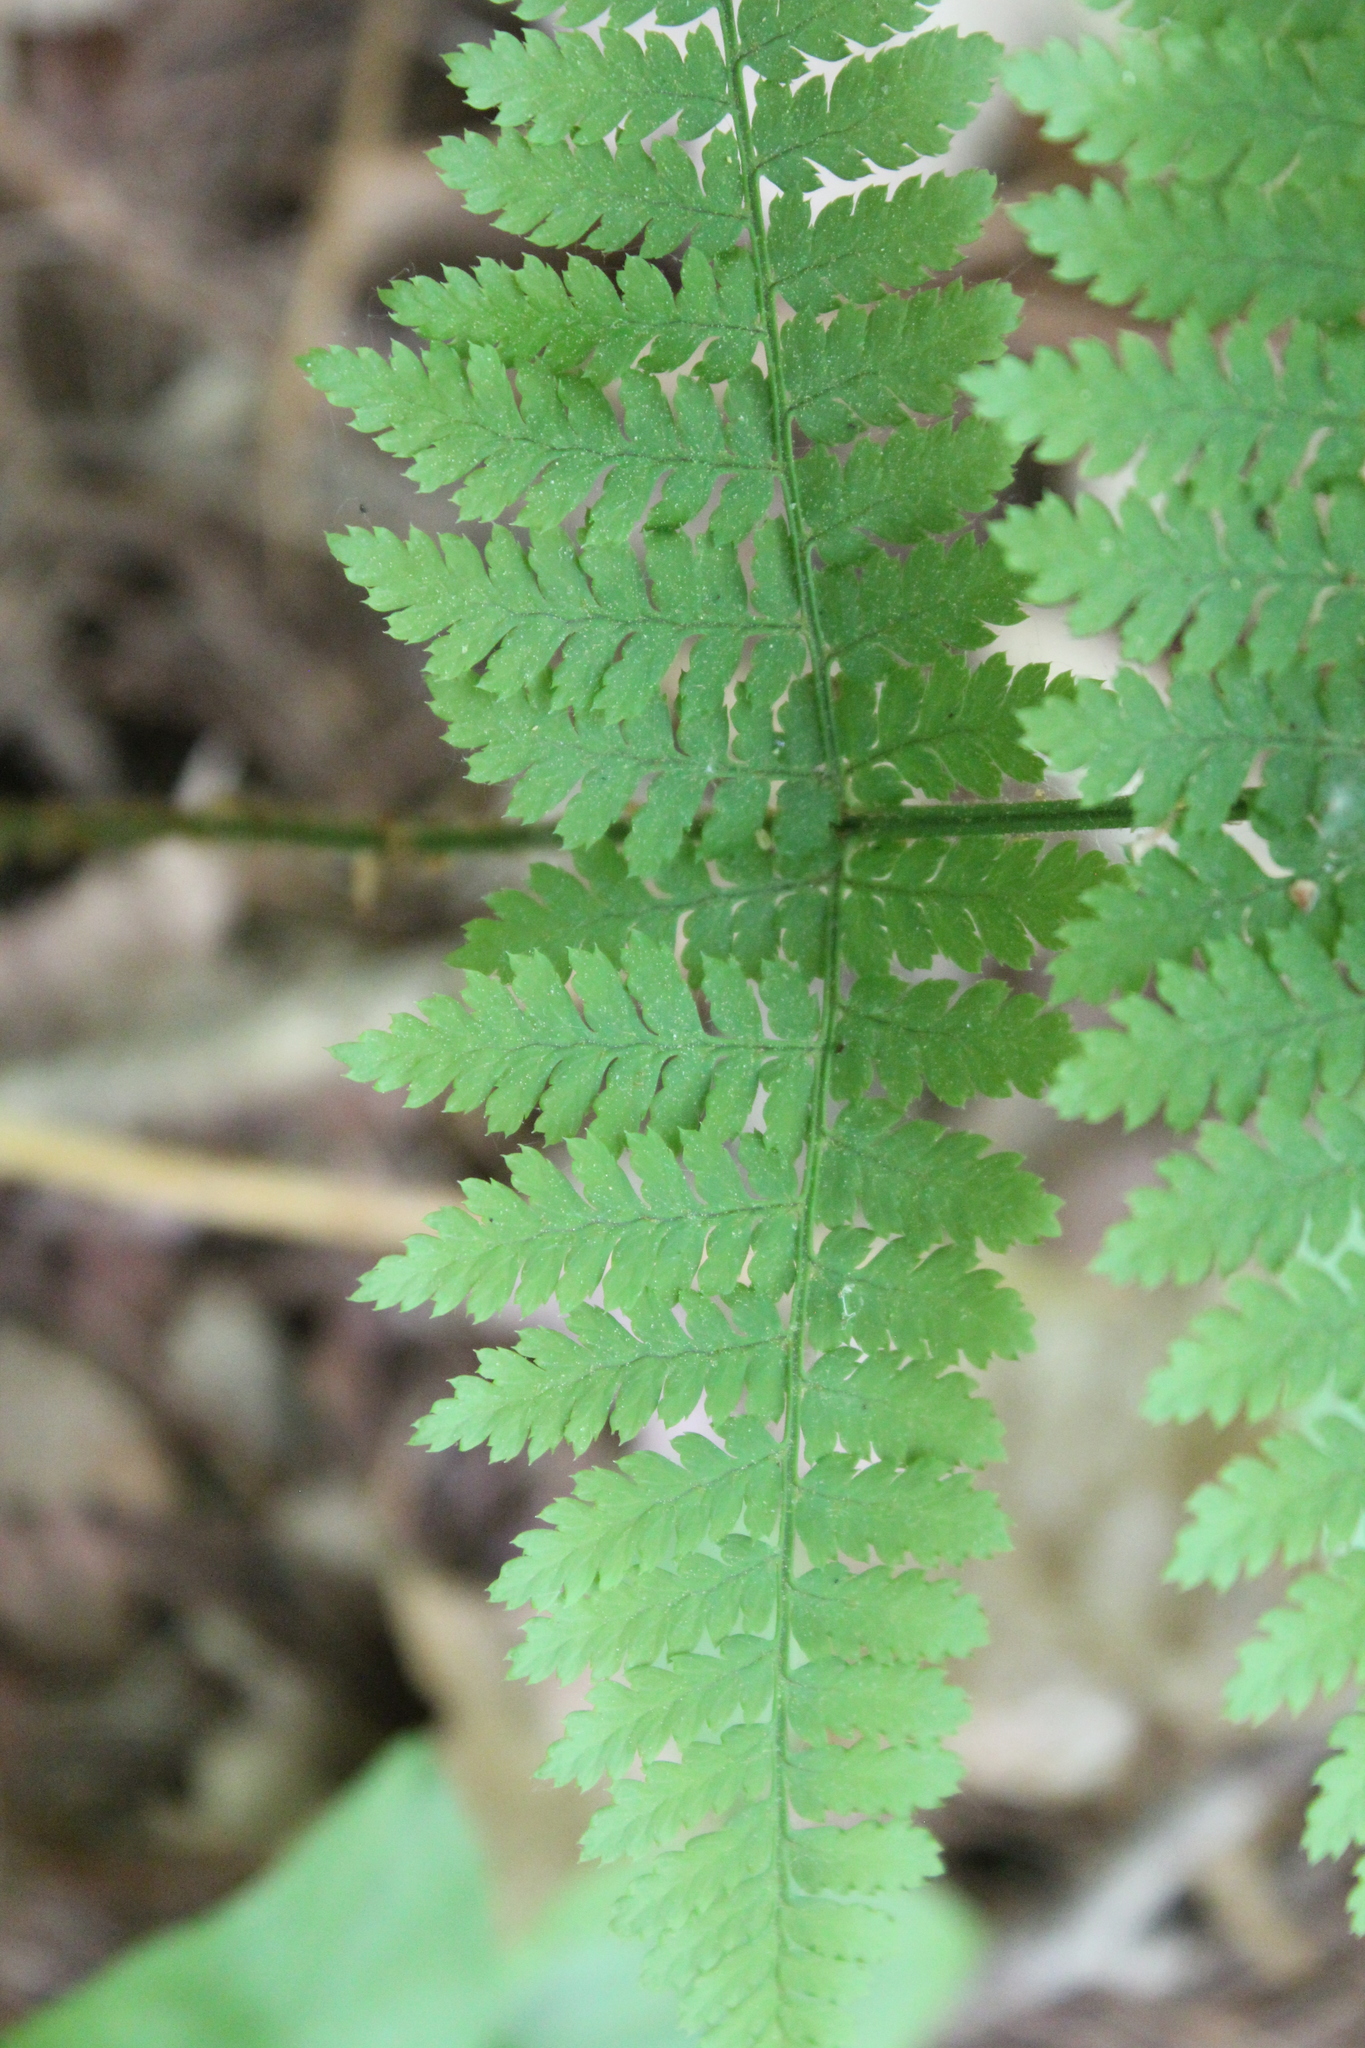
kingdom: Plantae
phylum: Tracheophyta
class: Polypodiopsida
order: Polypodiales
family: Dryopteridaceae
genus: Dryopteris
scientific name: Dryopteris intermedia
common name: Evergreen wood fern
